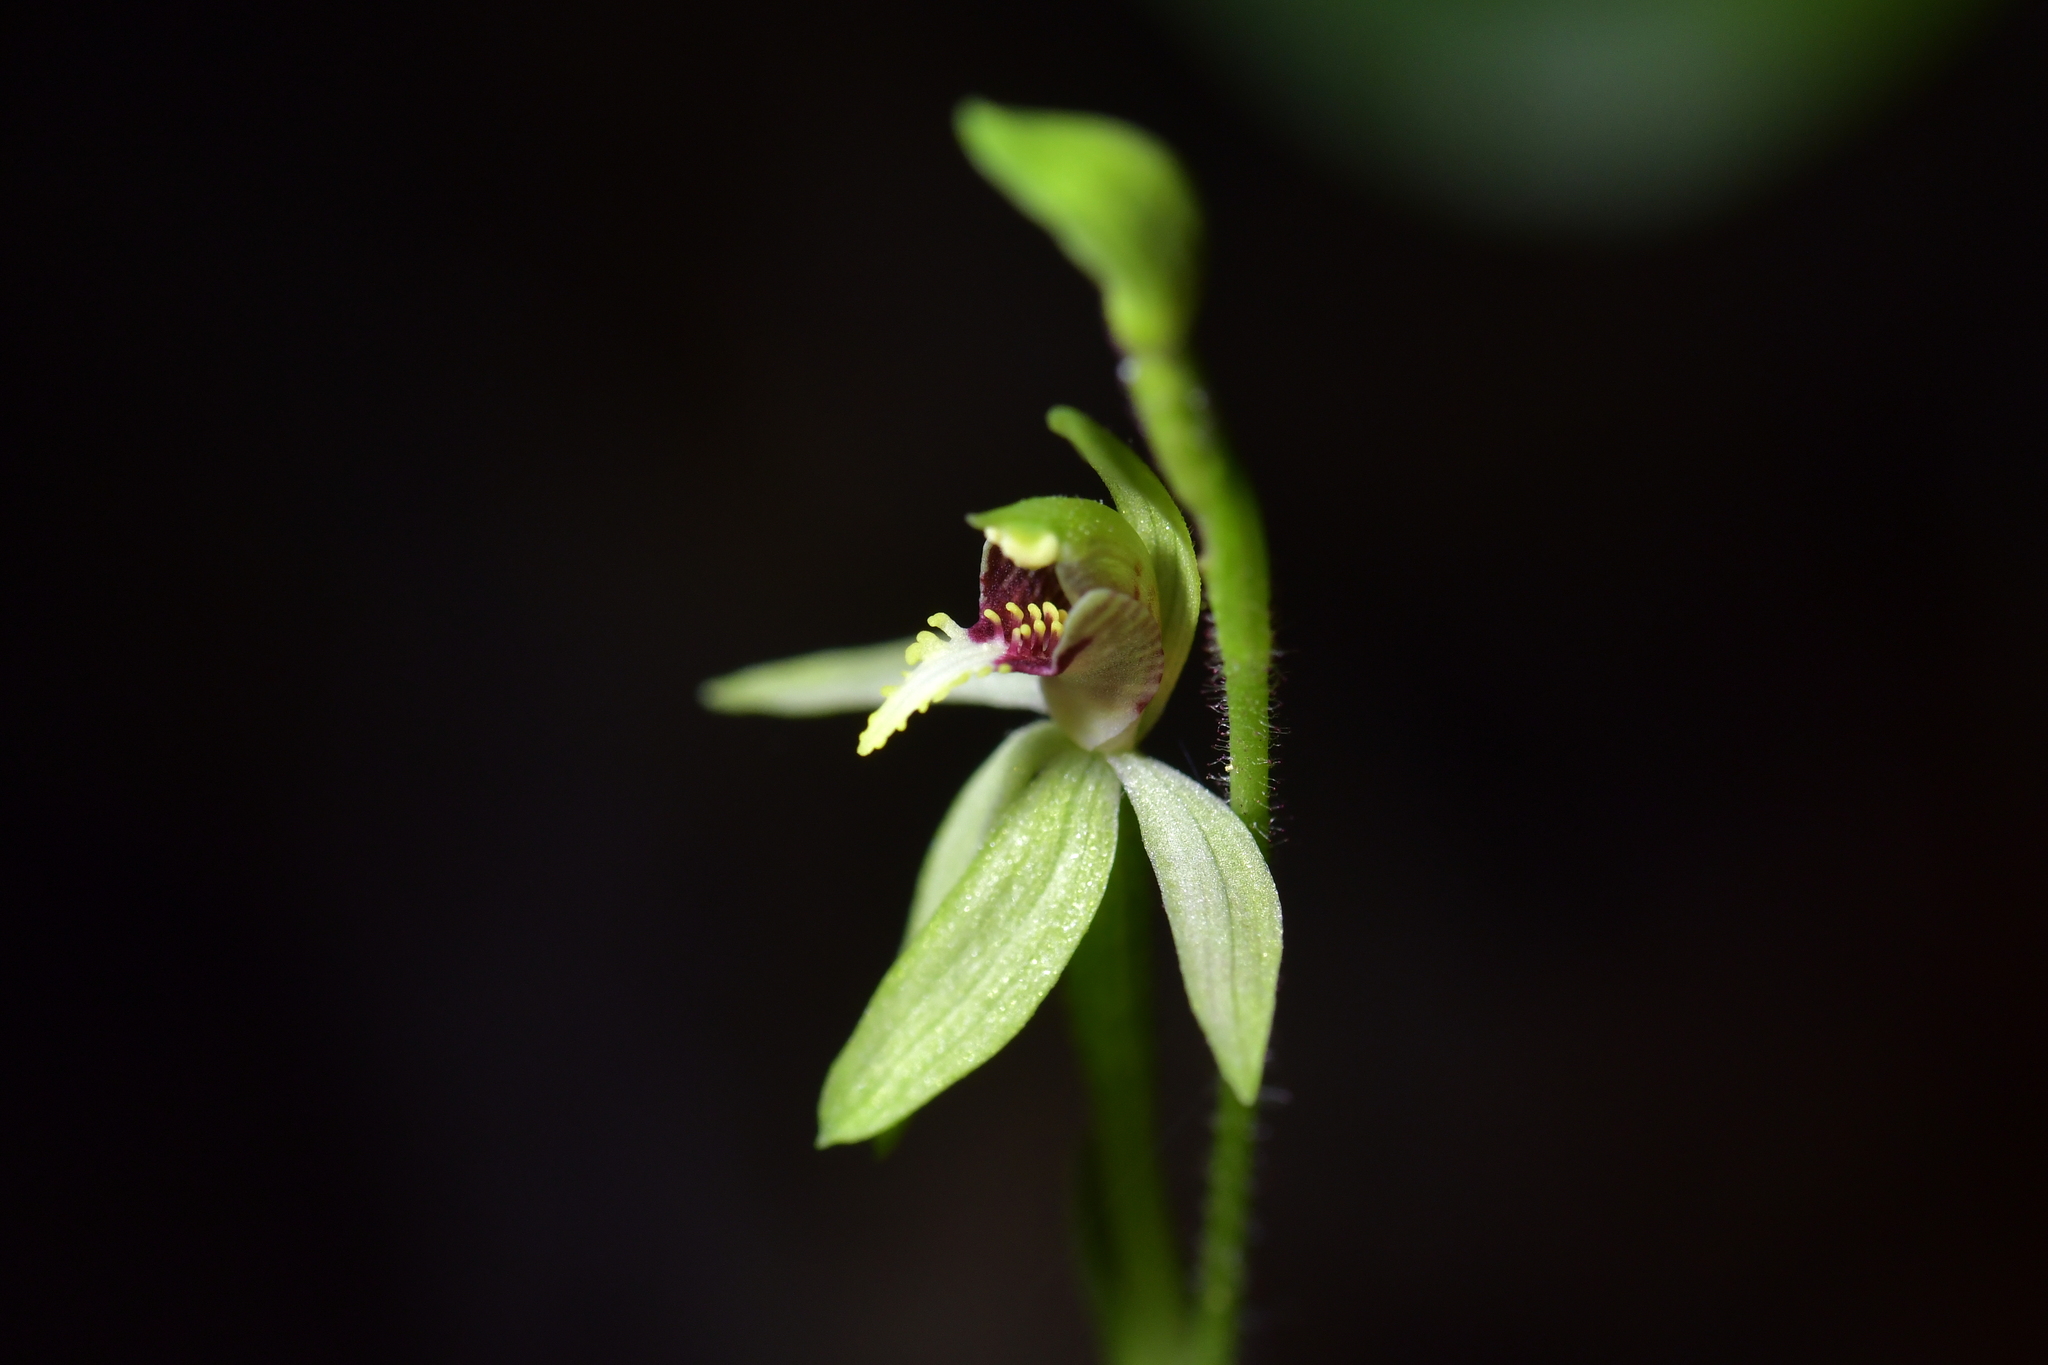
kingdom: Plantae
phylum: Tracheophyta
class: Liliopsida
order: Asparagales
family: Orchidaceae
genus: Caladenia
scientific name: Caladenia chlorostyla
